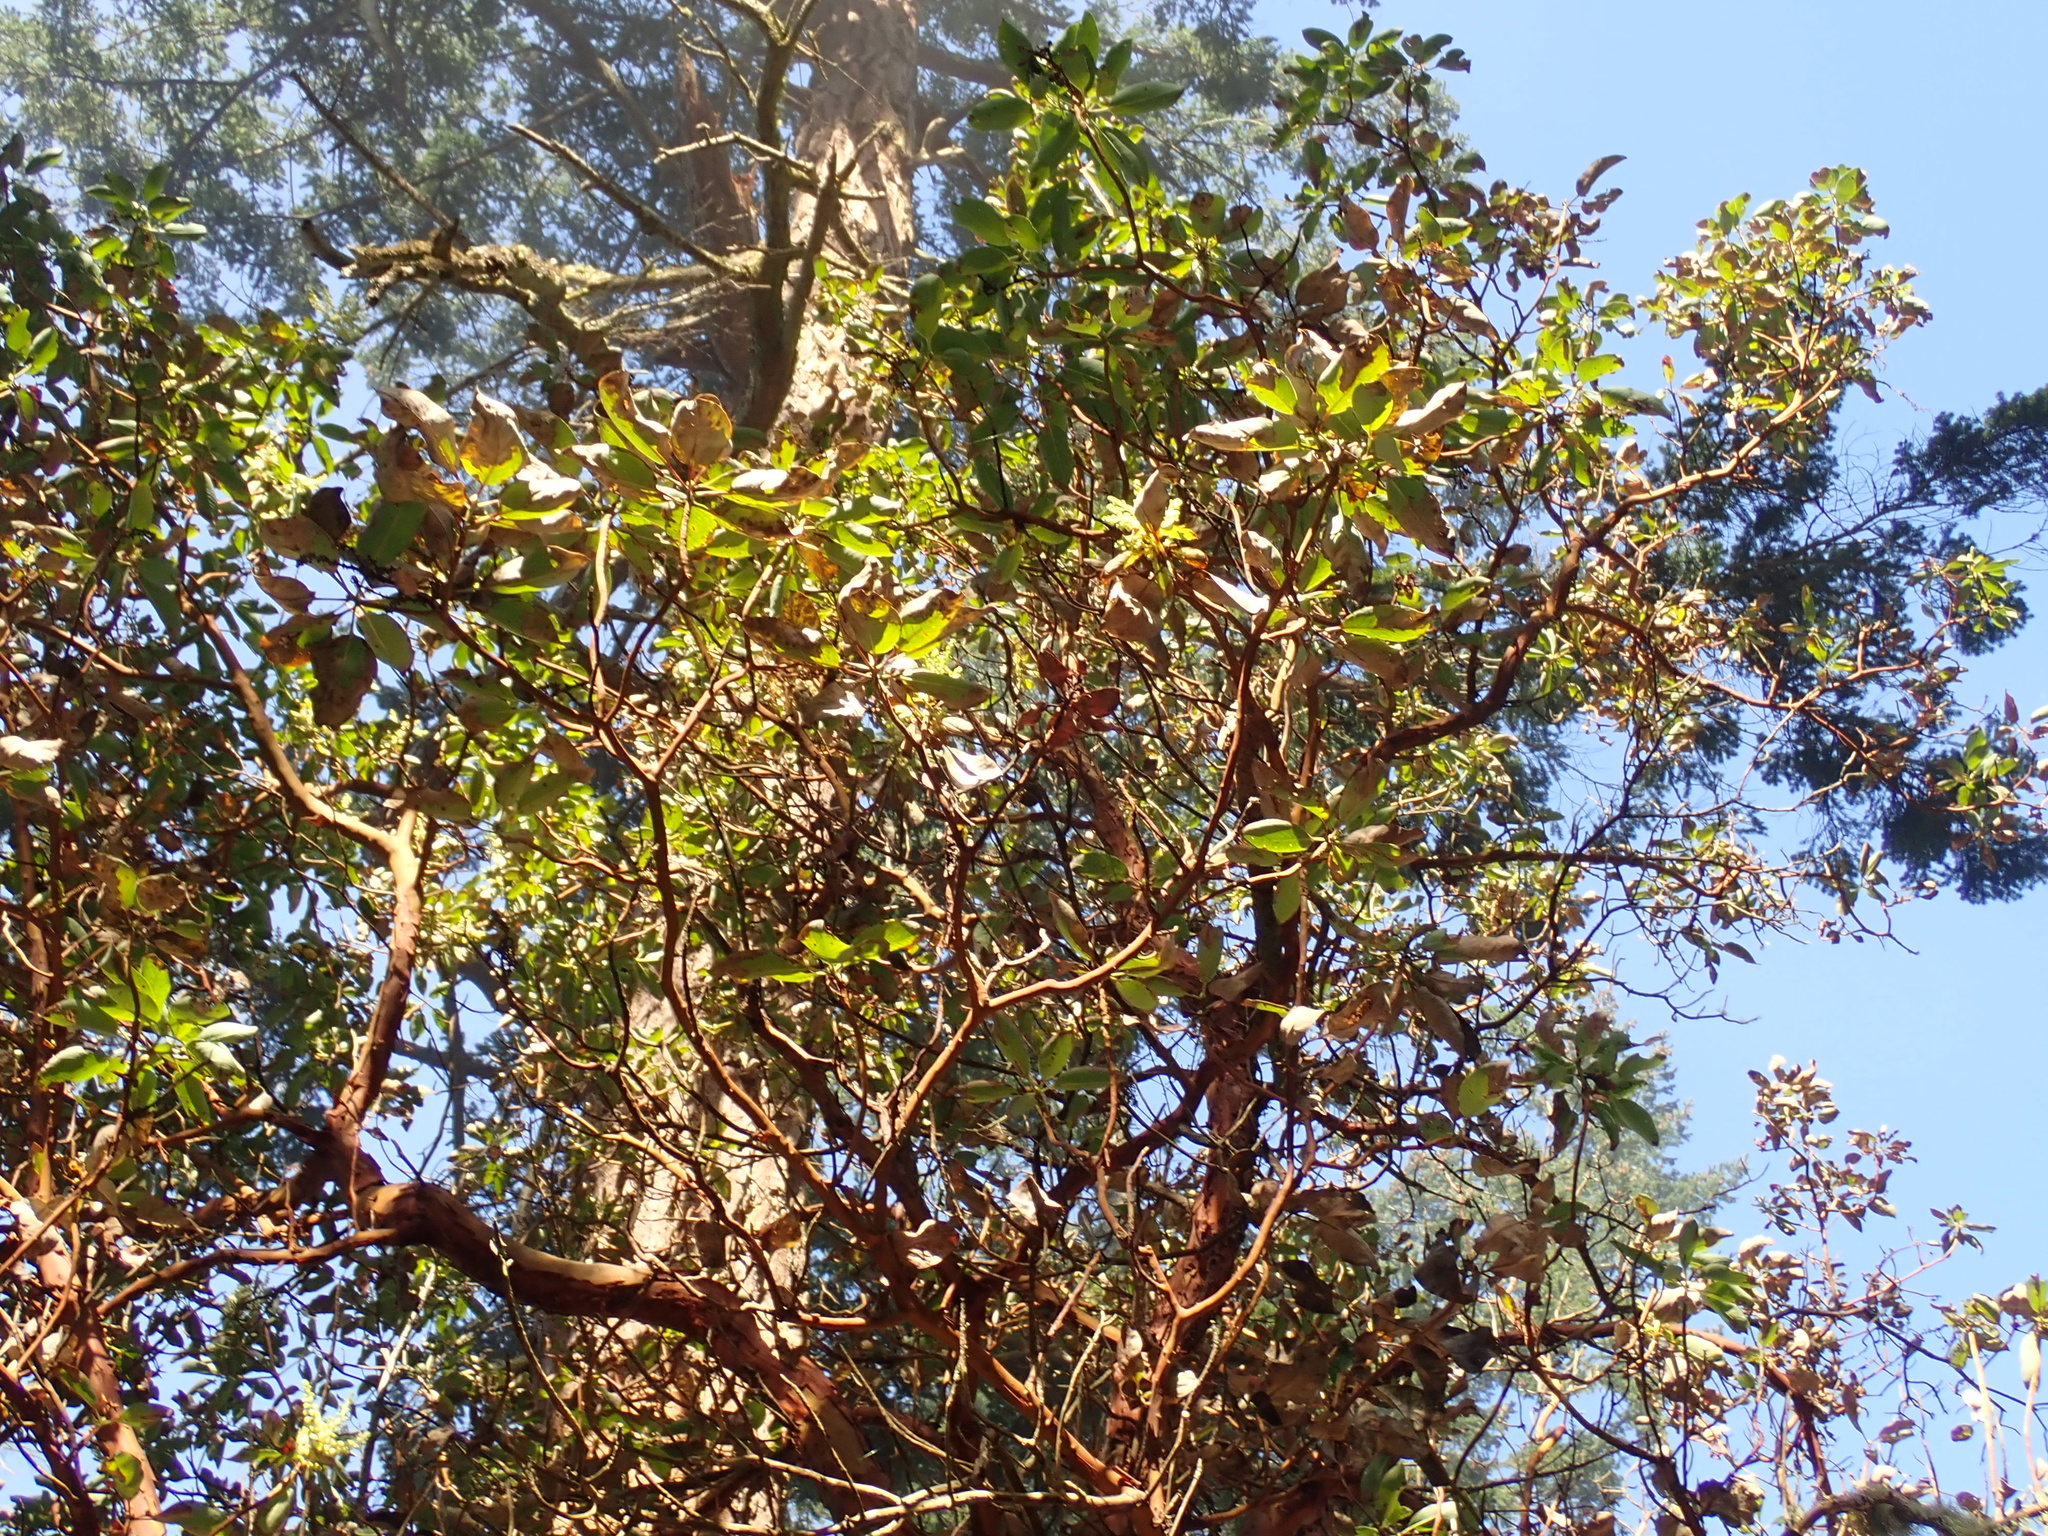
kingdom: Plantae
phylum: Tracheophyta
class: Magnoliopsida
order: Ericales
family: Ericaceae
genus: Arbutus
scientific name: Arbutus menziesii
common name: Pacific madrone
